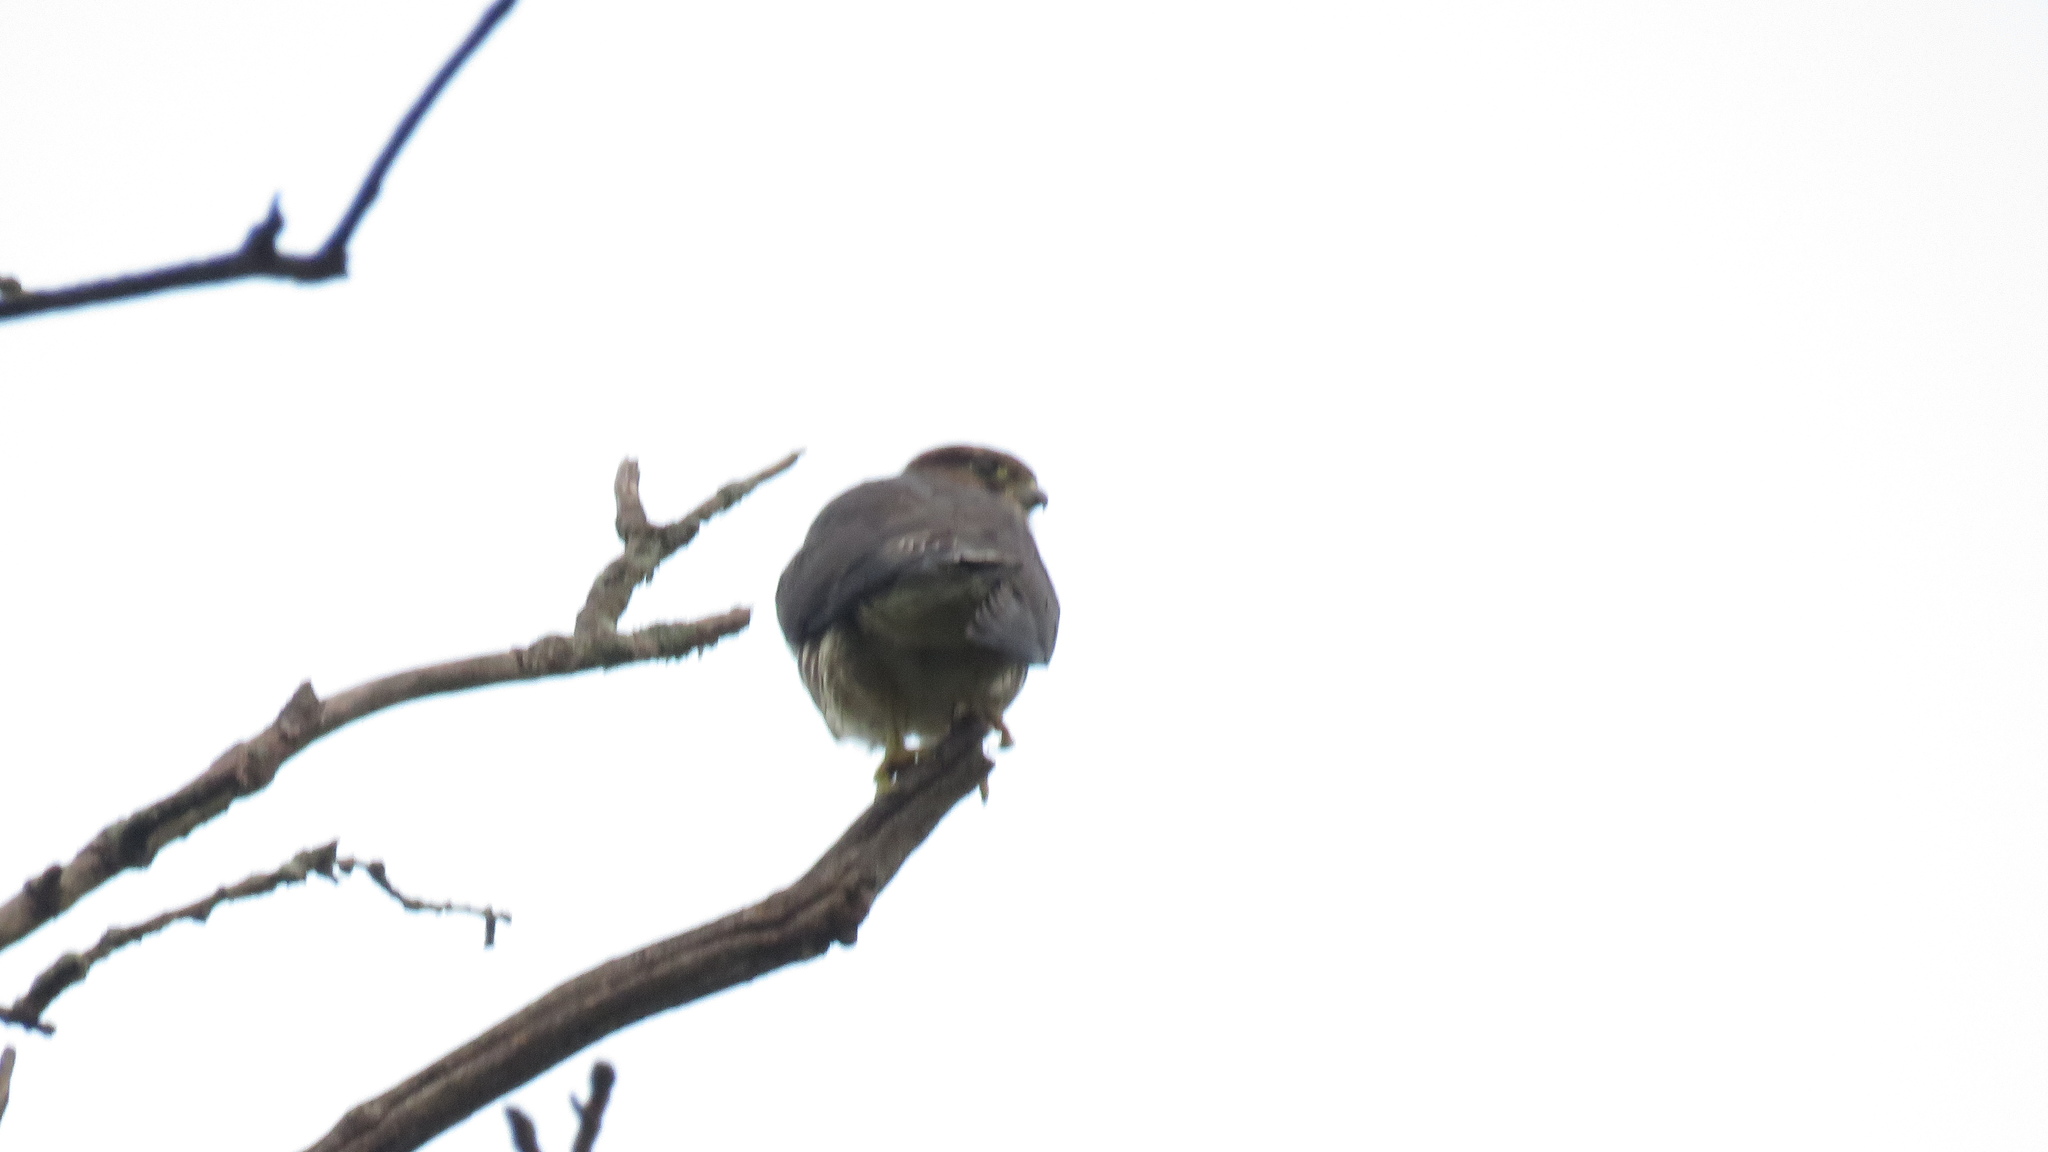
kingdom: Animalia
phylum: Chordata
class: Aves
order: Falconiformes
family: Falconidae
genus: Falco
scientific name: Falco columbarius
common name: Merlin
